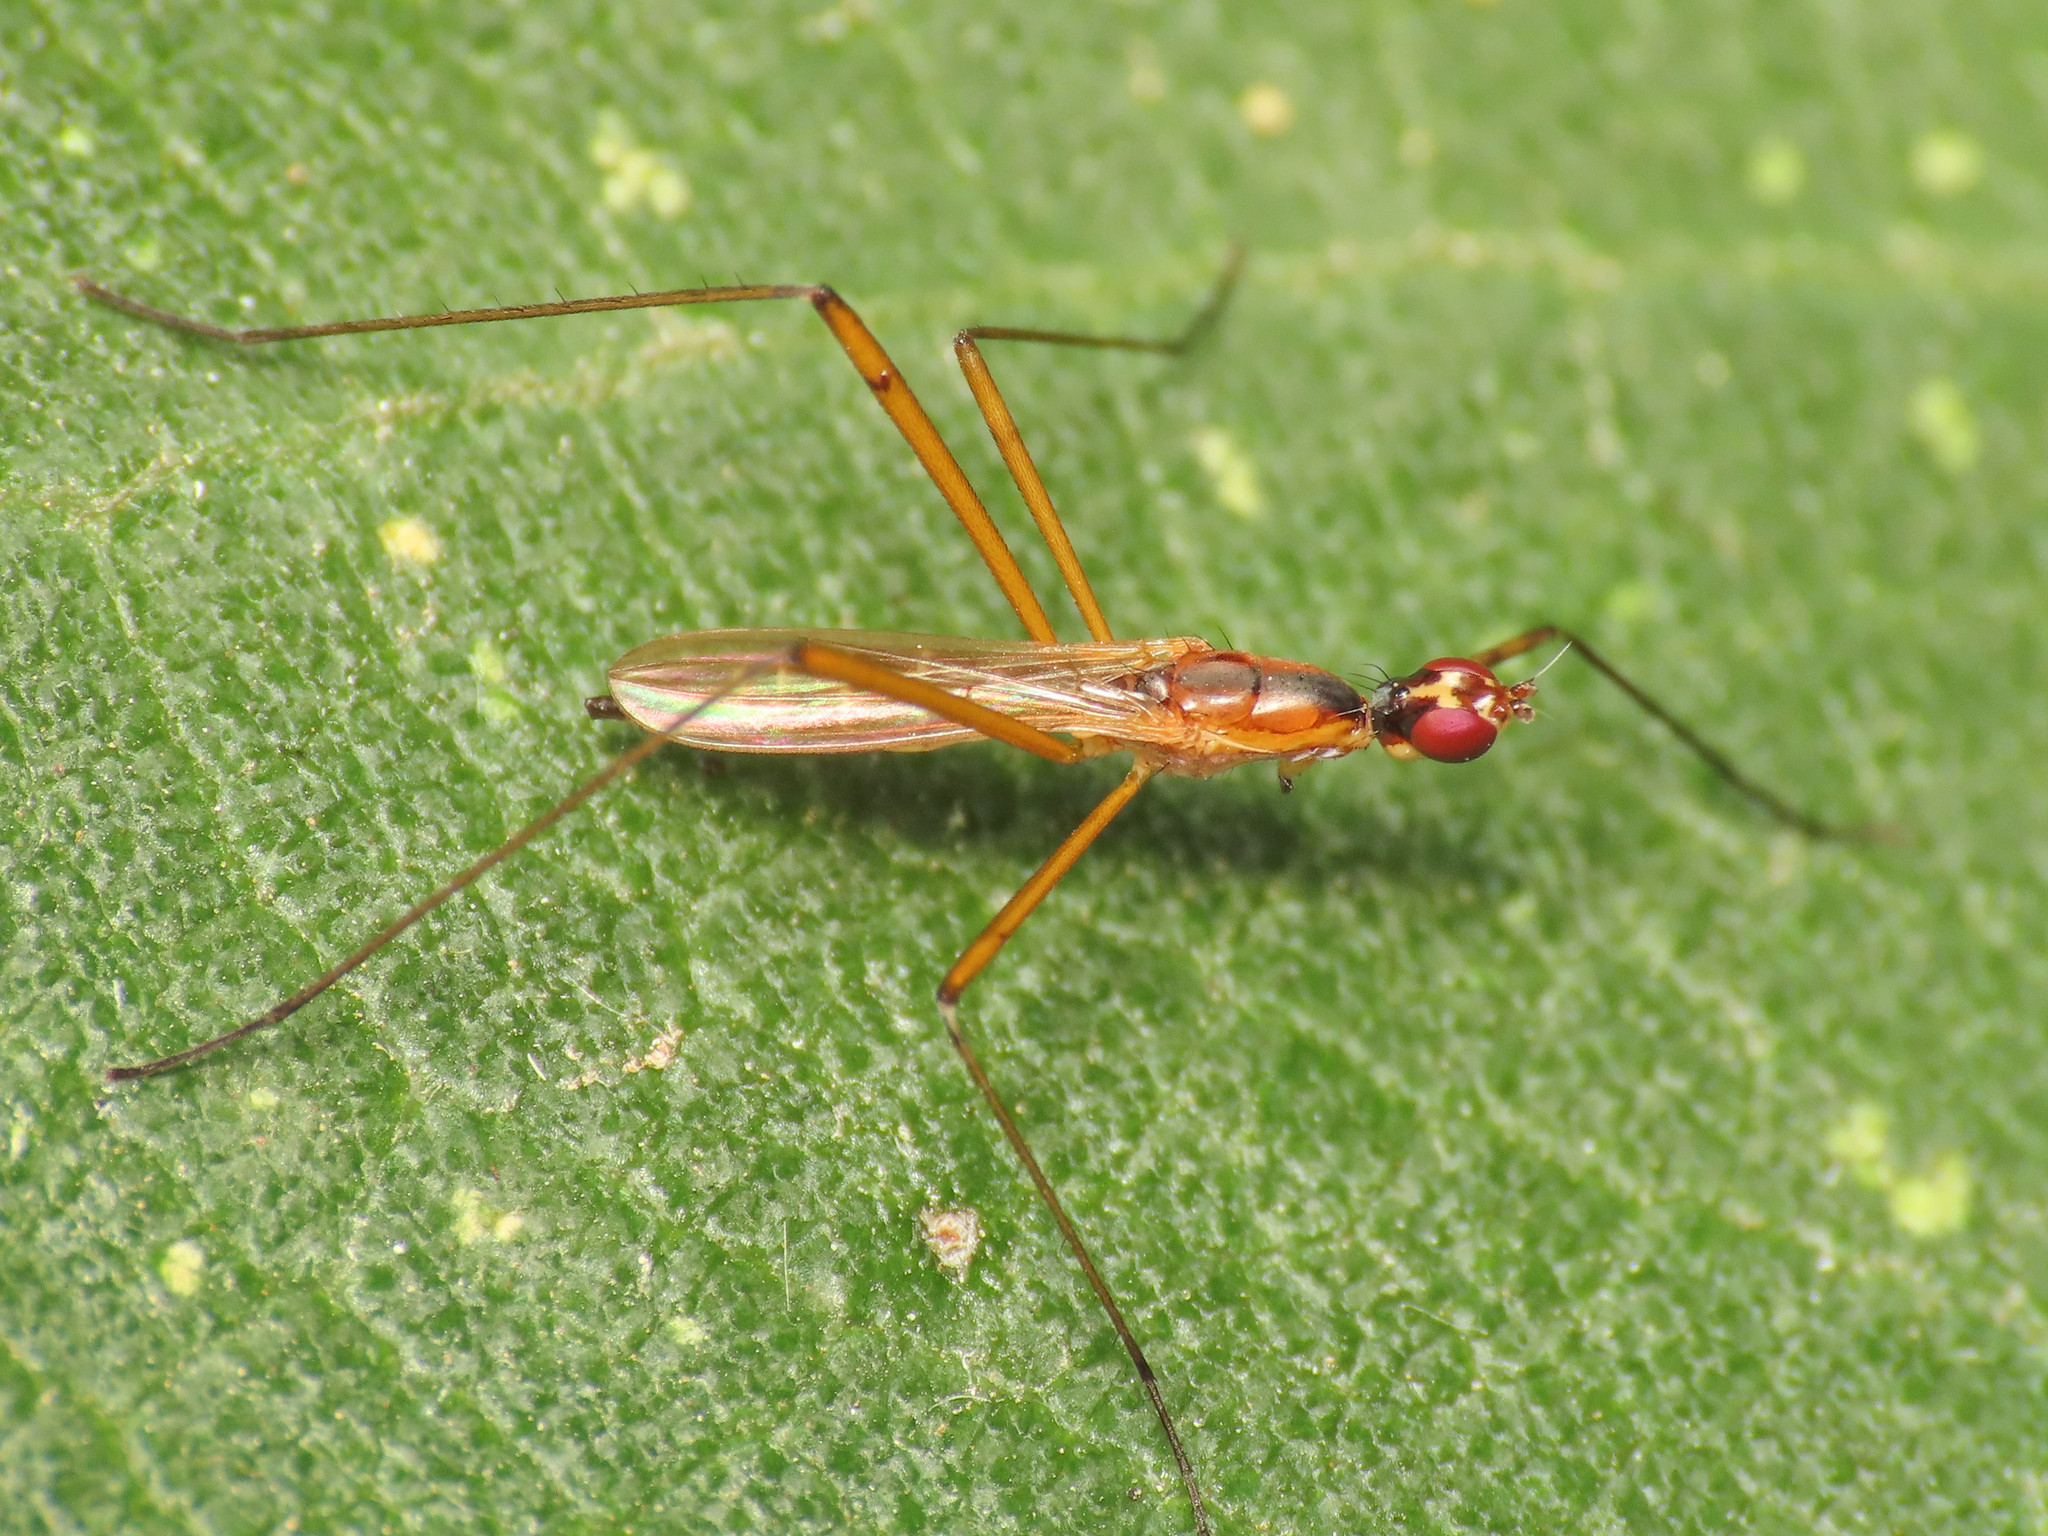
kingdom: Animalia
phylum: Arthropoda
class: Insecta
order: Diptera
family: Micropezidae
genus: Micropeza
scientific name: Micropeza grallatrix
